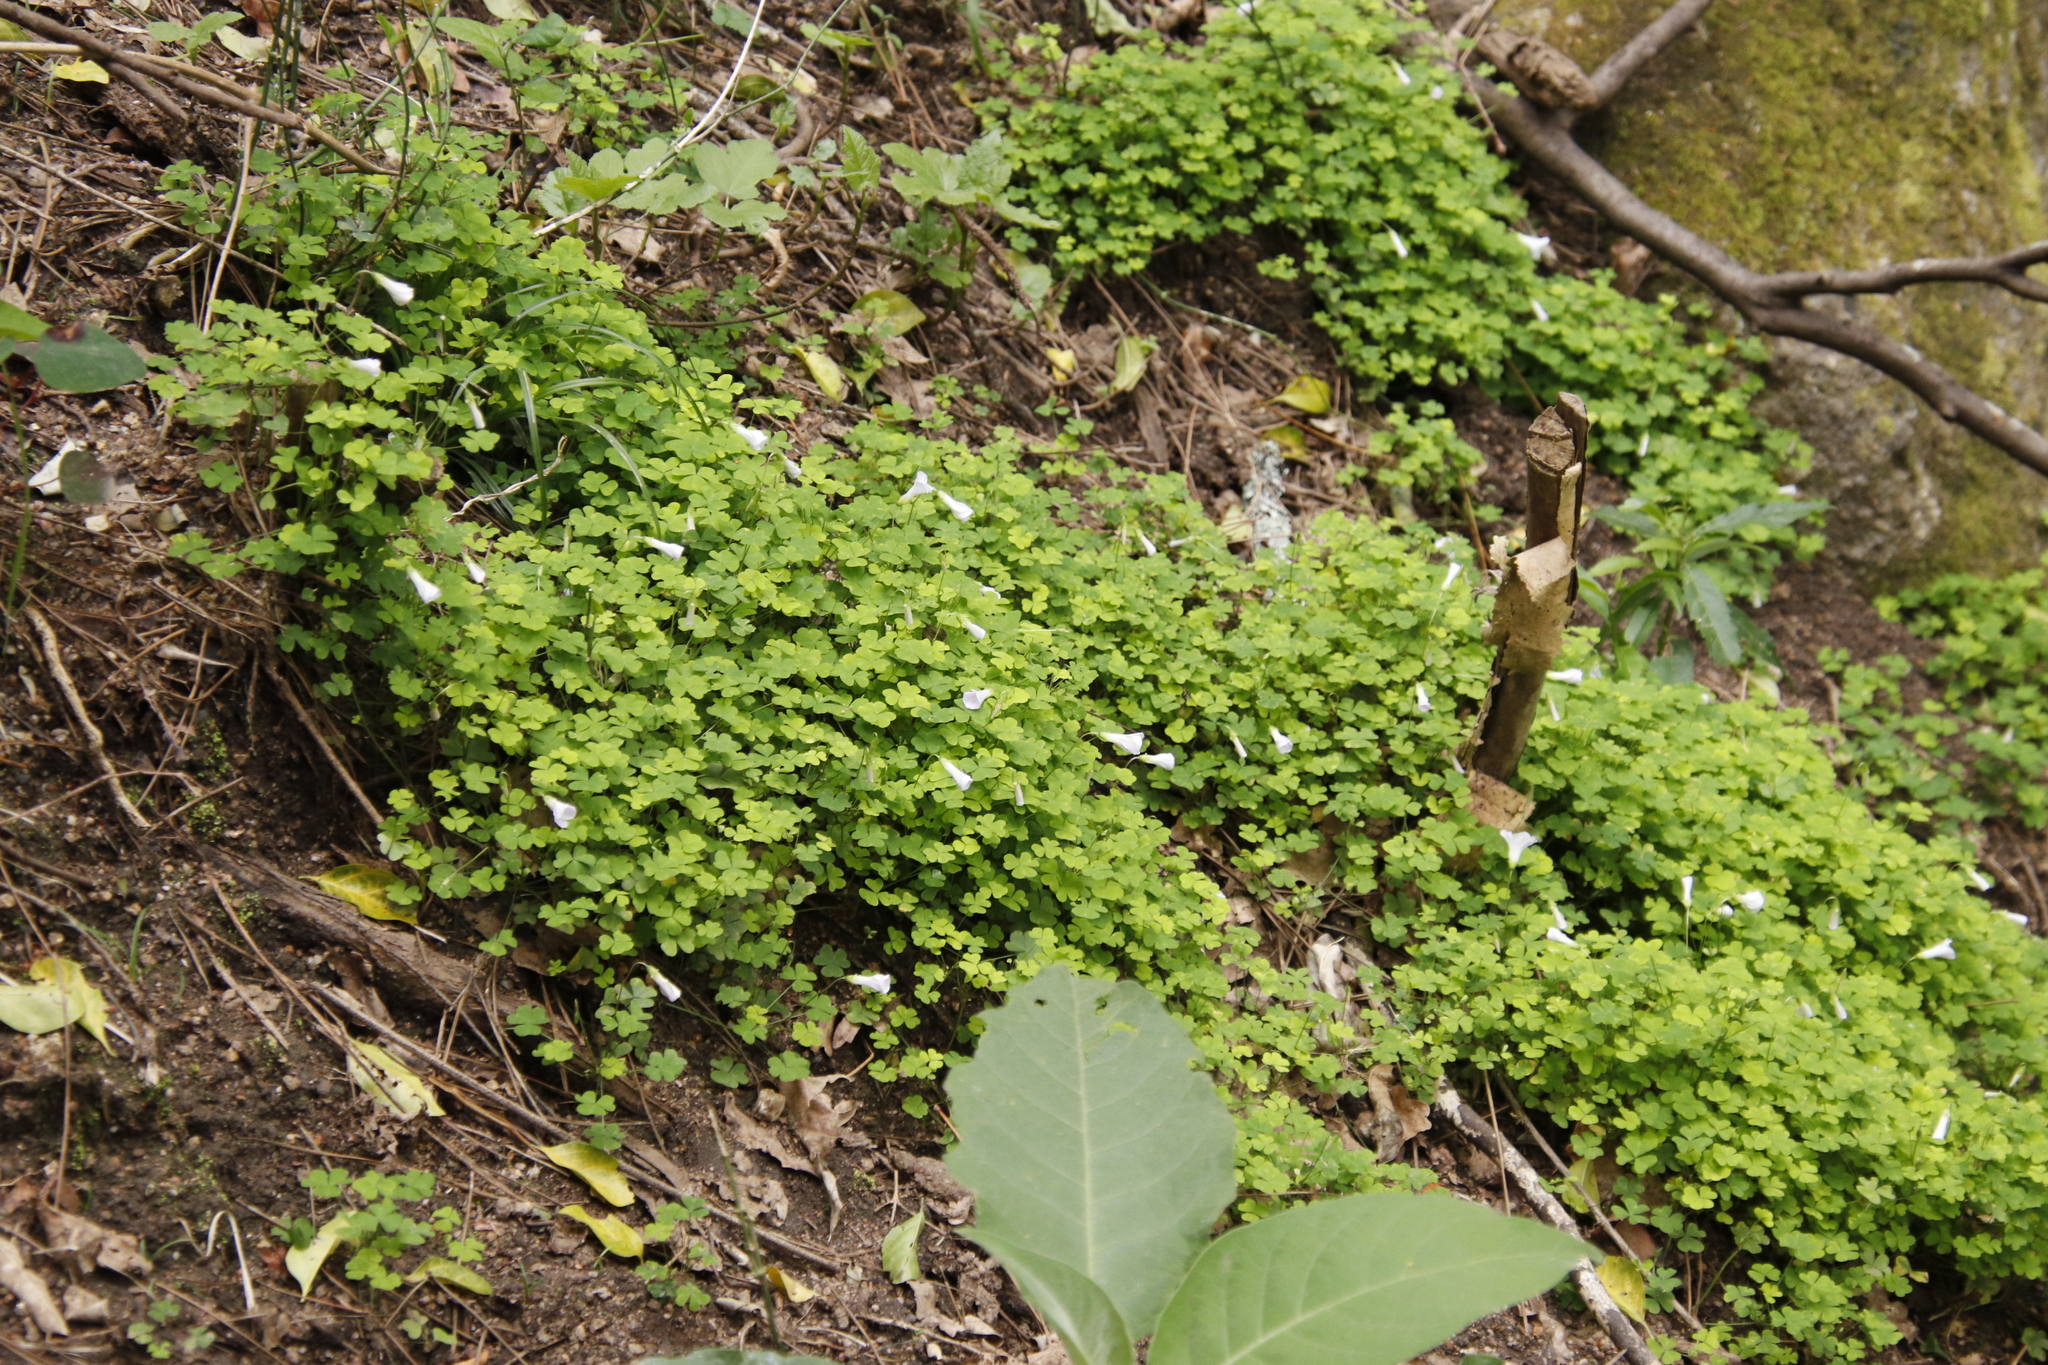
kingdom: Plantae
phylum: Tracheophyta
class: Magnoliopsida
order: Oxalidales
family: Oxalidaceae
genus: Oxalis
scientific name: Oxalis incarnata
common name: Pale pink-sorrel
